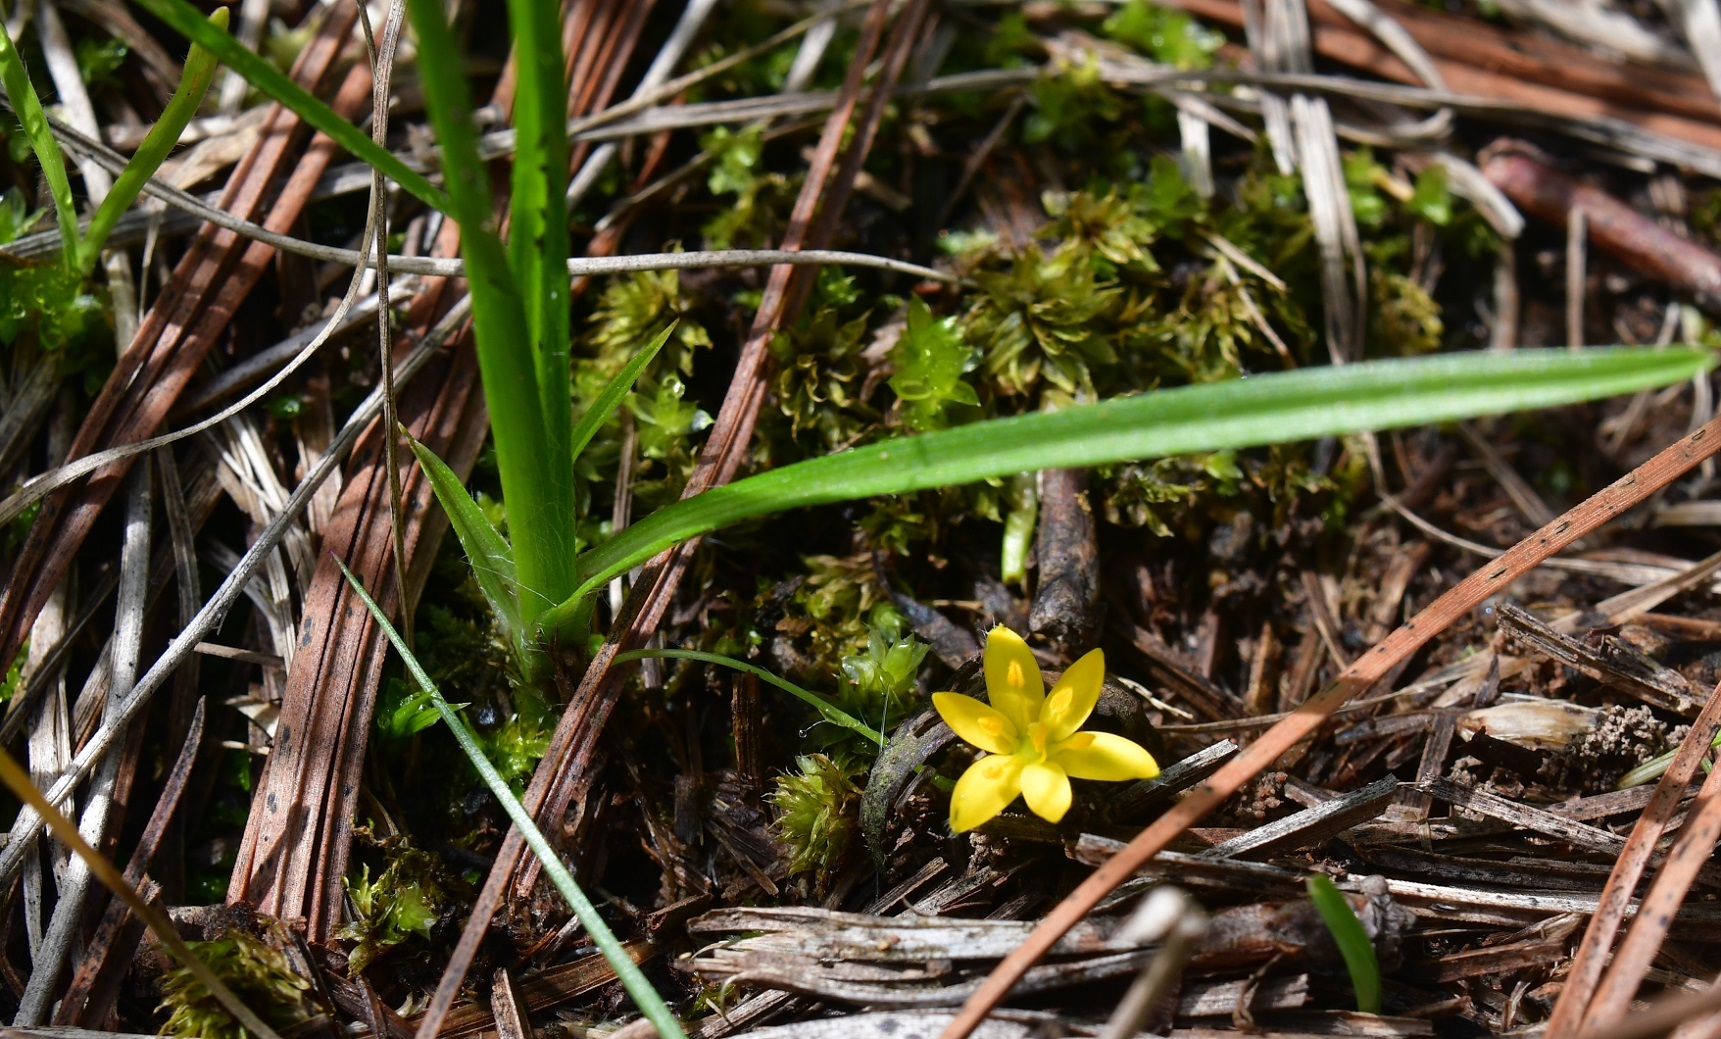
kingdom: Plantae
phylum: Tracheophyta
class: Liliopsida
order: Asparagales
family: Hypoxidaceae
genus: Hypoxis
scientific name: Hypoxis decumbens
